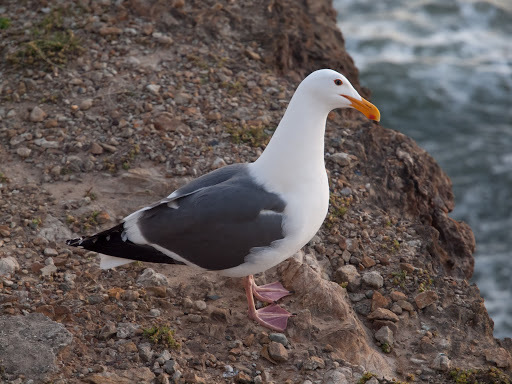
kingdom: Animalia
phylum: Chordata
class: Aves
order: Charadriiformes
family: Laridae
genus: Larus
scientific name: Larus occidentalis
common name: Western gull
